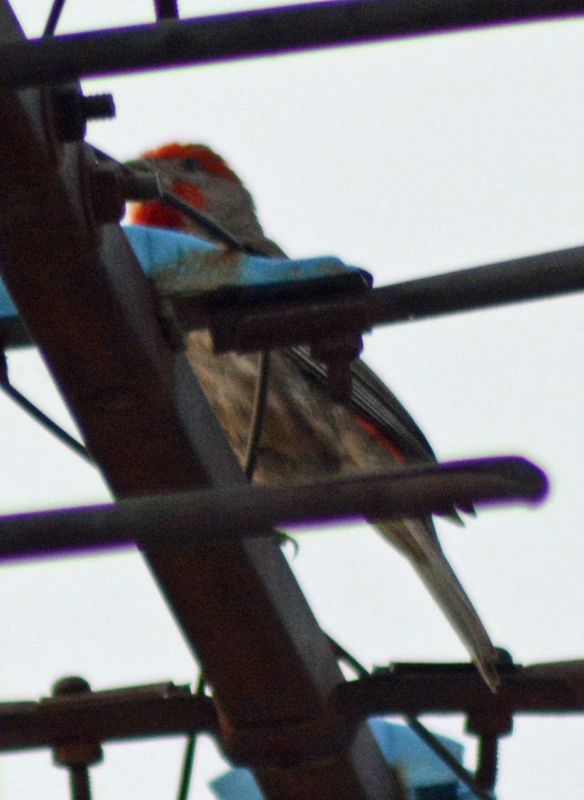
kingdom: Animalia
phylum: Chordata
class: Aves
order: Passeriformes
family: Fringillidae
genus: Haemorhous
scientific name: Haemorhous mexicanus
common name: House finch
